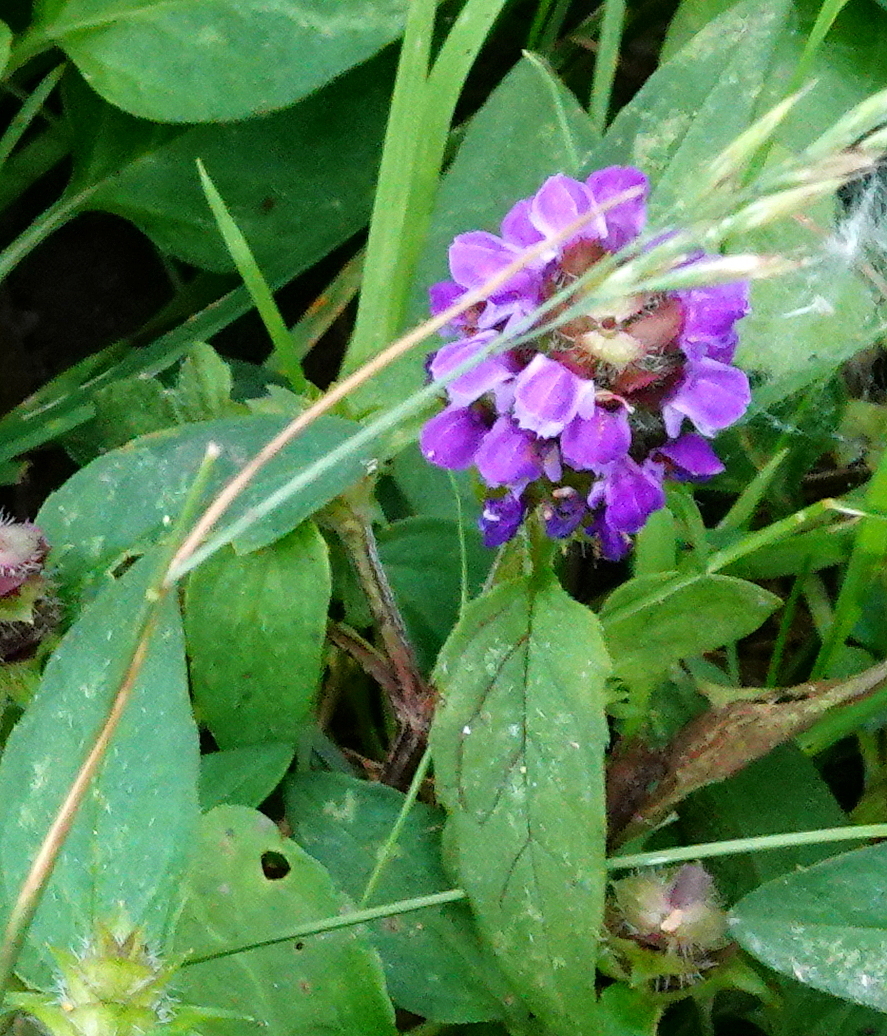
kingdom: Plantae
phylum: Tracheophyta
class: Magnoliopsida
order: Lamiales
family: Lamiaceae
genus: Prunella
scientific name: Prunella vulgaris
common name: Heal-all
